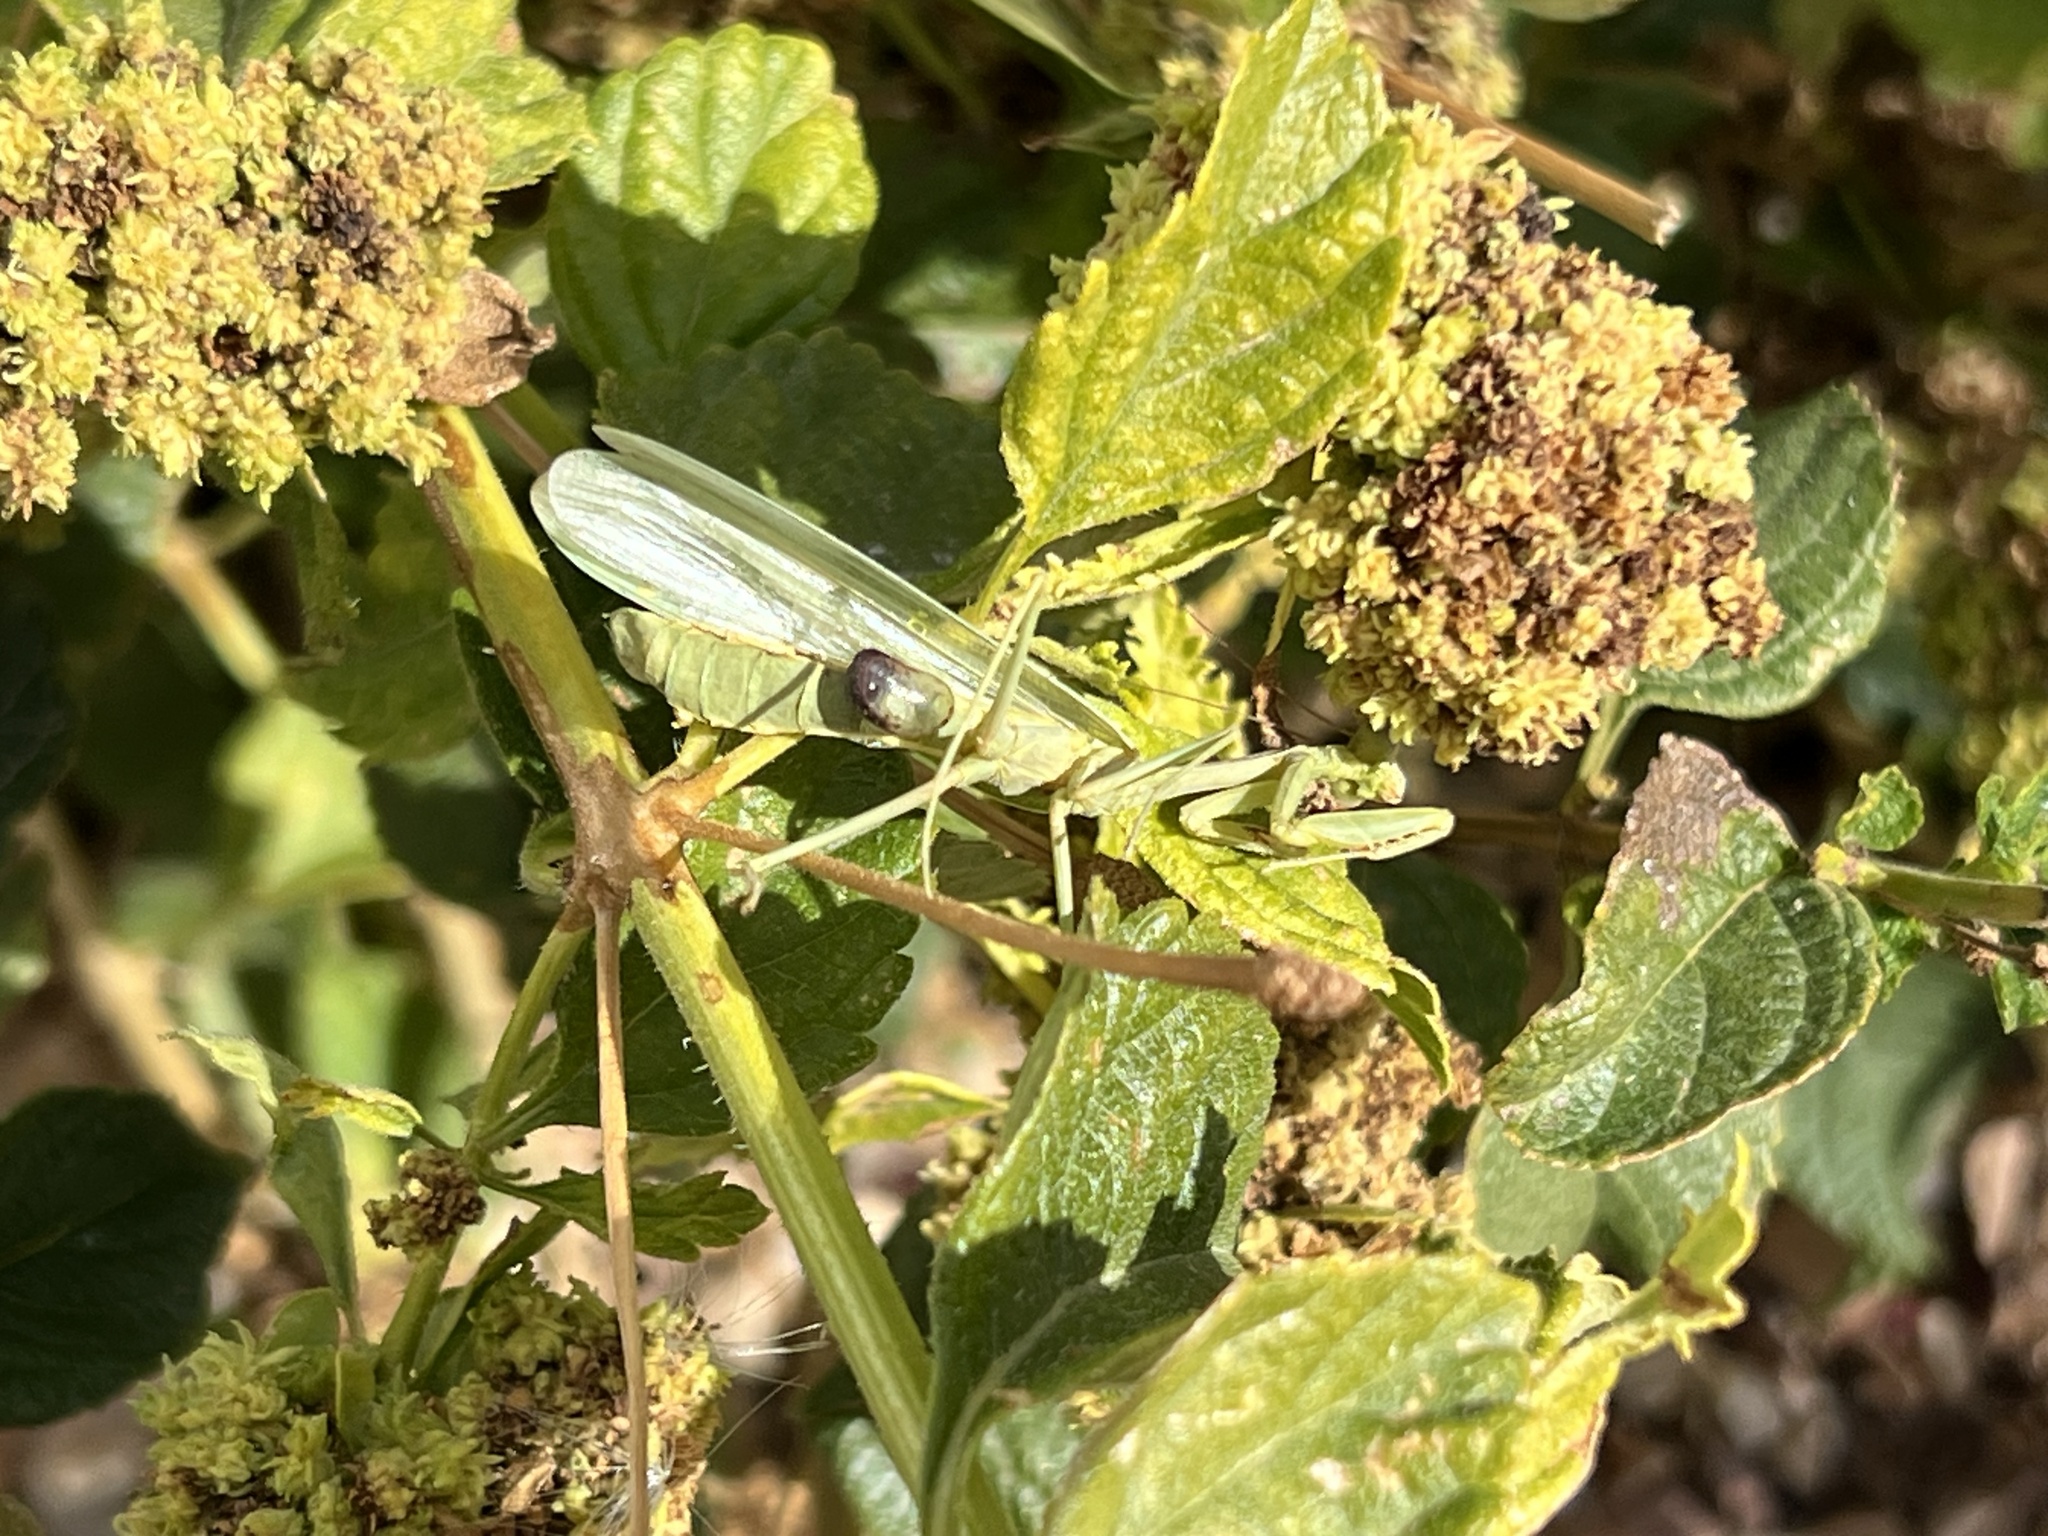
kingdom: Animalia
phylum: Arthropoda
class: Insecta
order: Mantodea
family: Mantidae
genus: Stagmomantis
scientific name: Stagmomantis limbata
